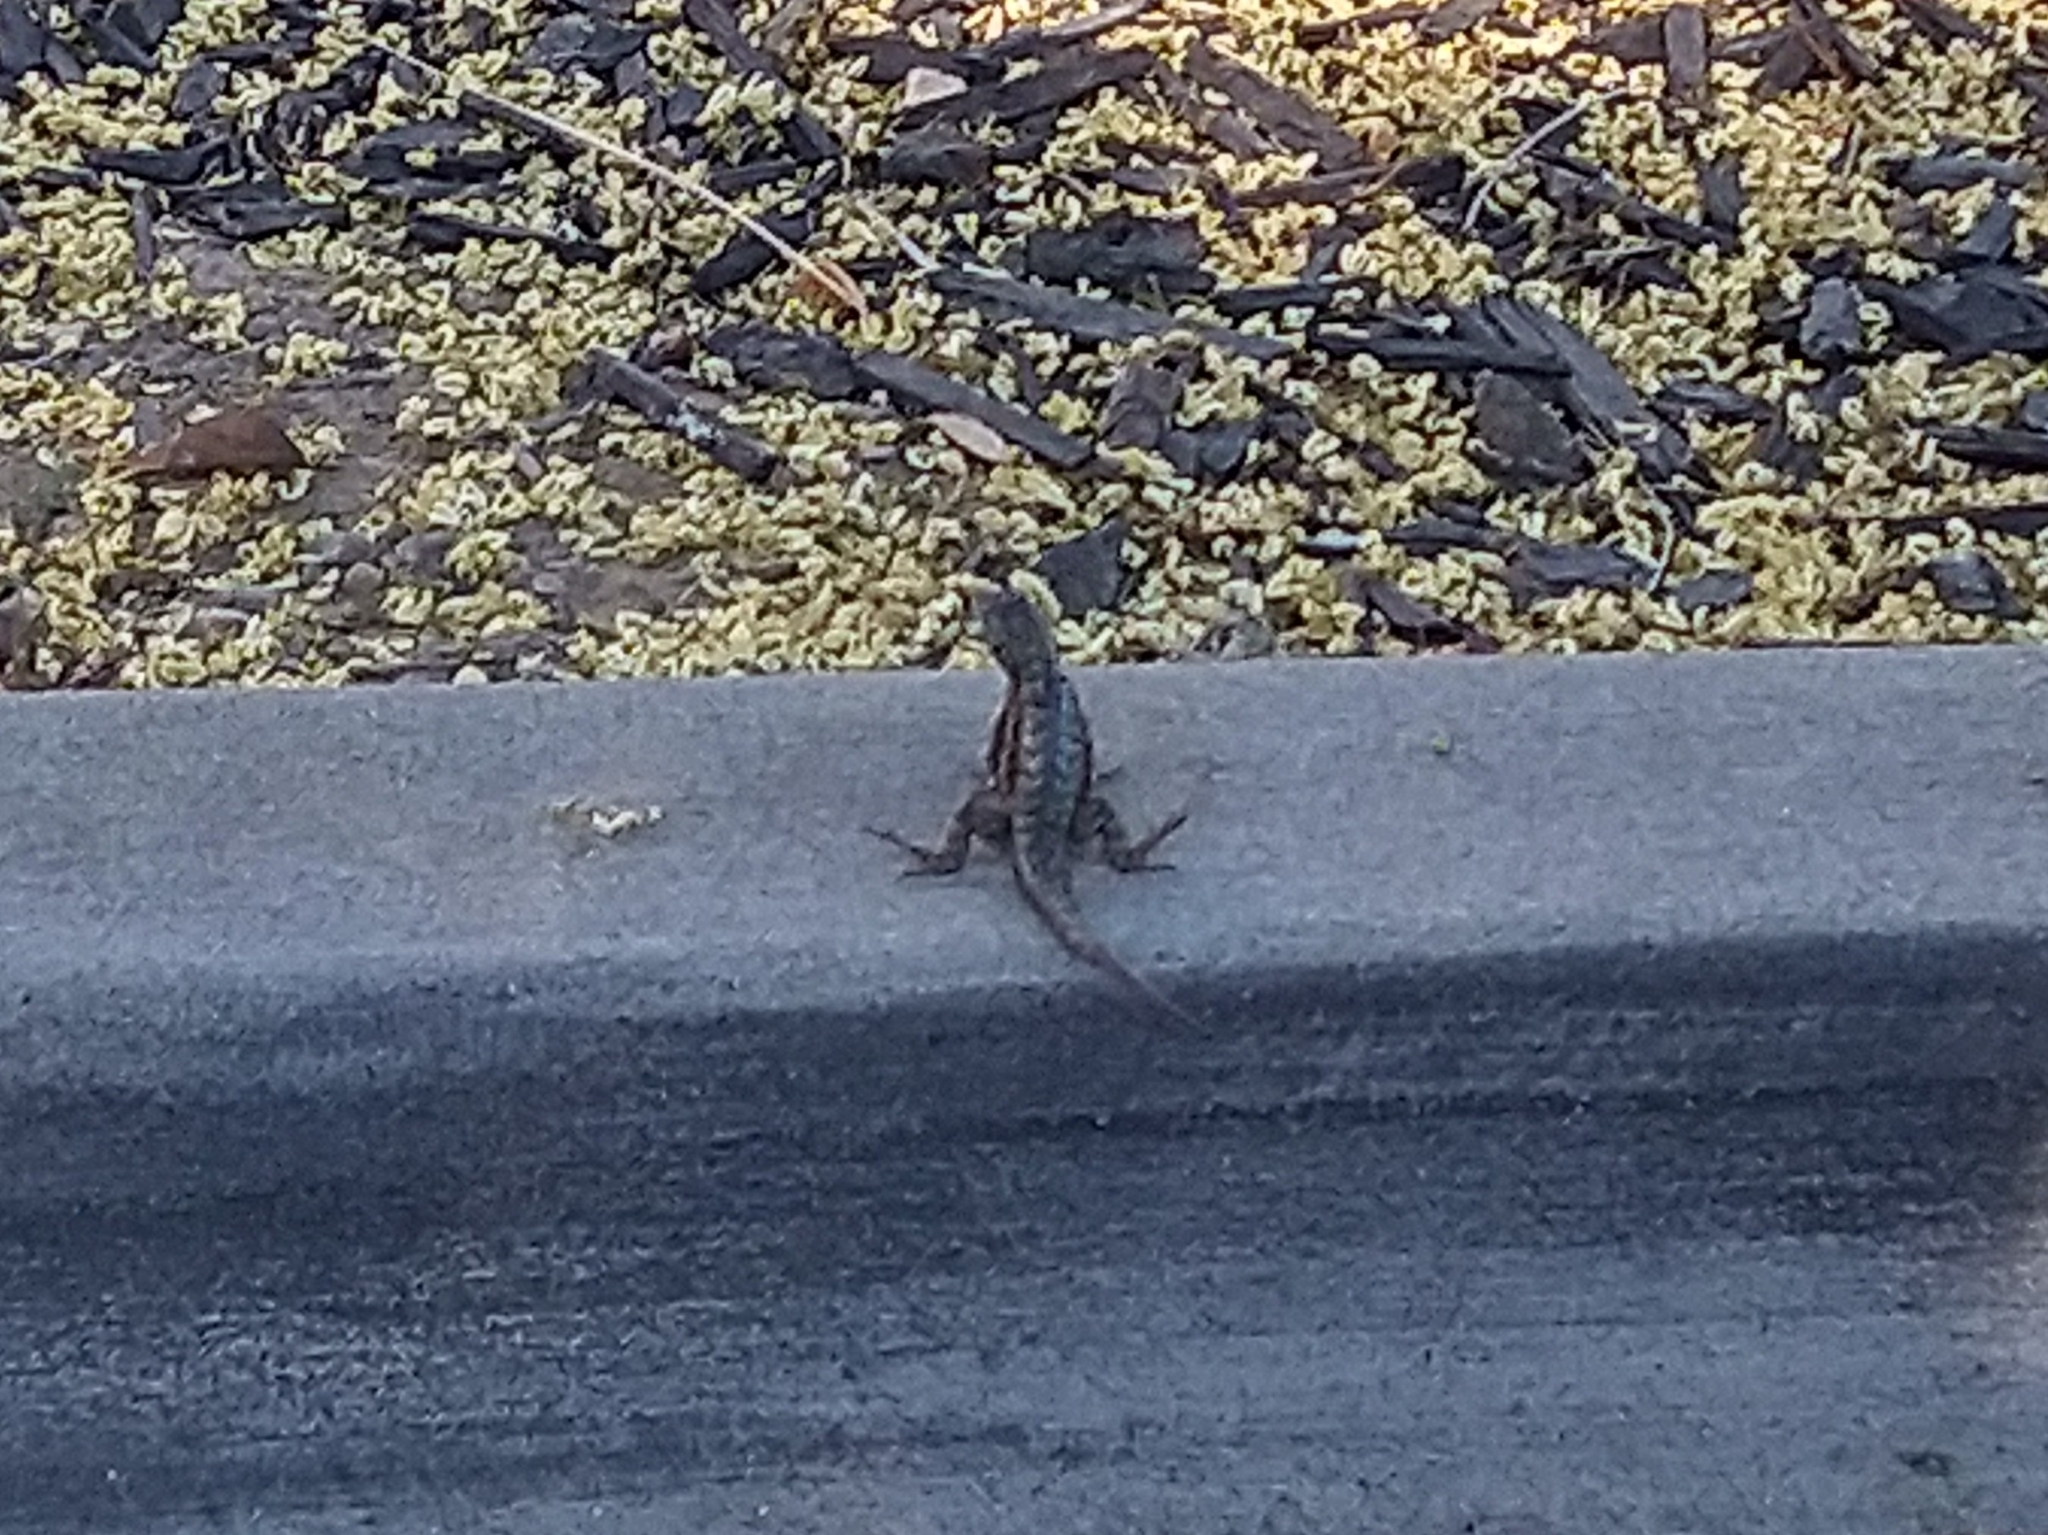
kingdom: Animalia
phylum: Chordata
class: Squamata
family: Phrynosomatidae
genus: Sceloporus
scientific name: Sceloporus occidentalis
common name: Western fence lizard
